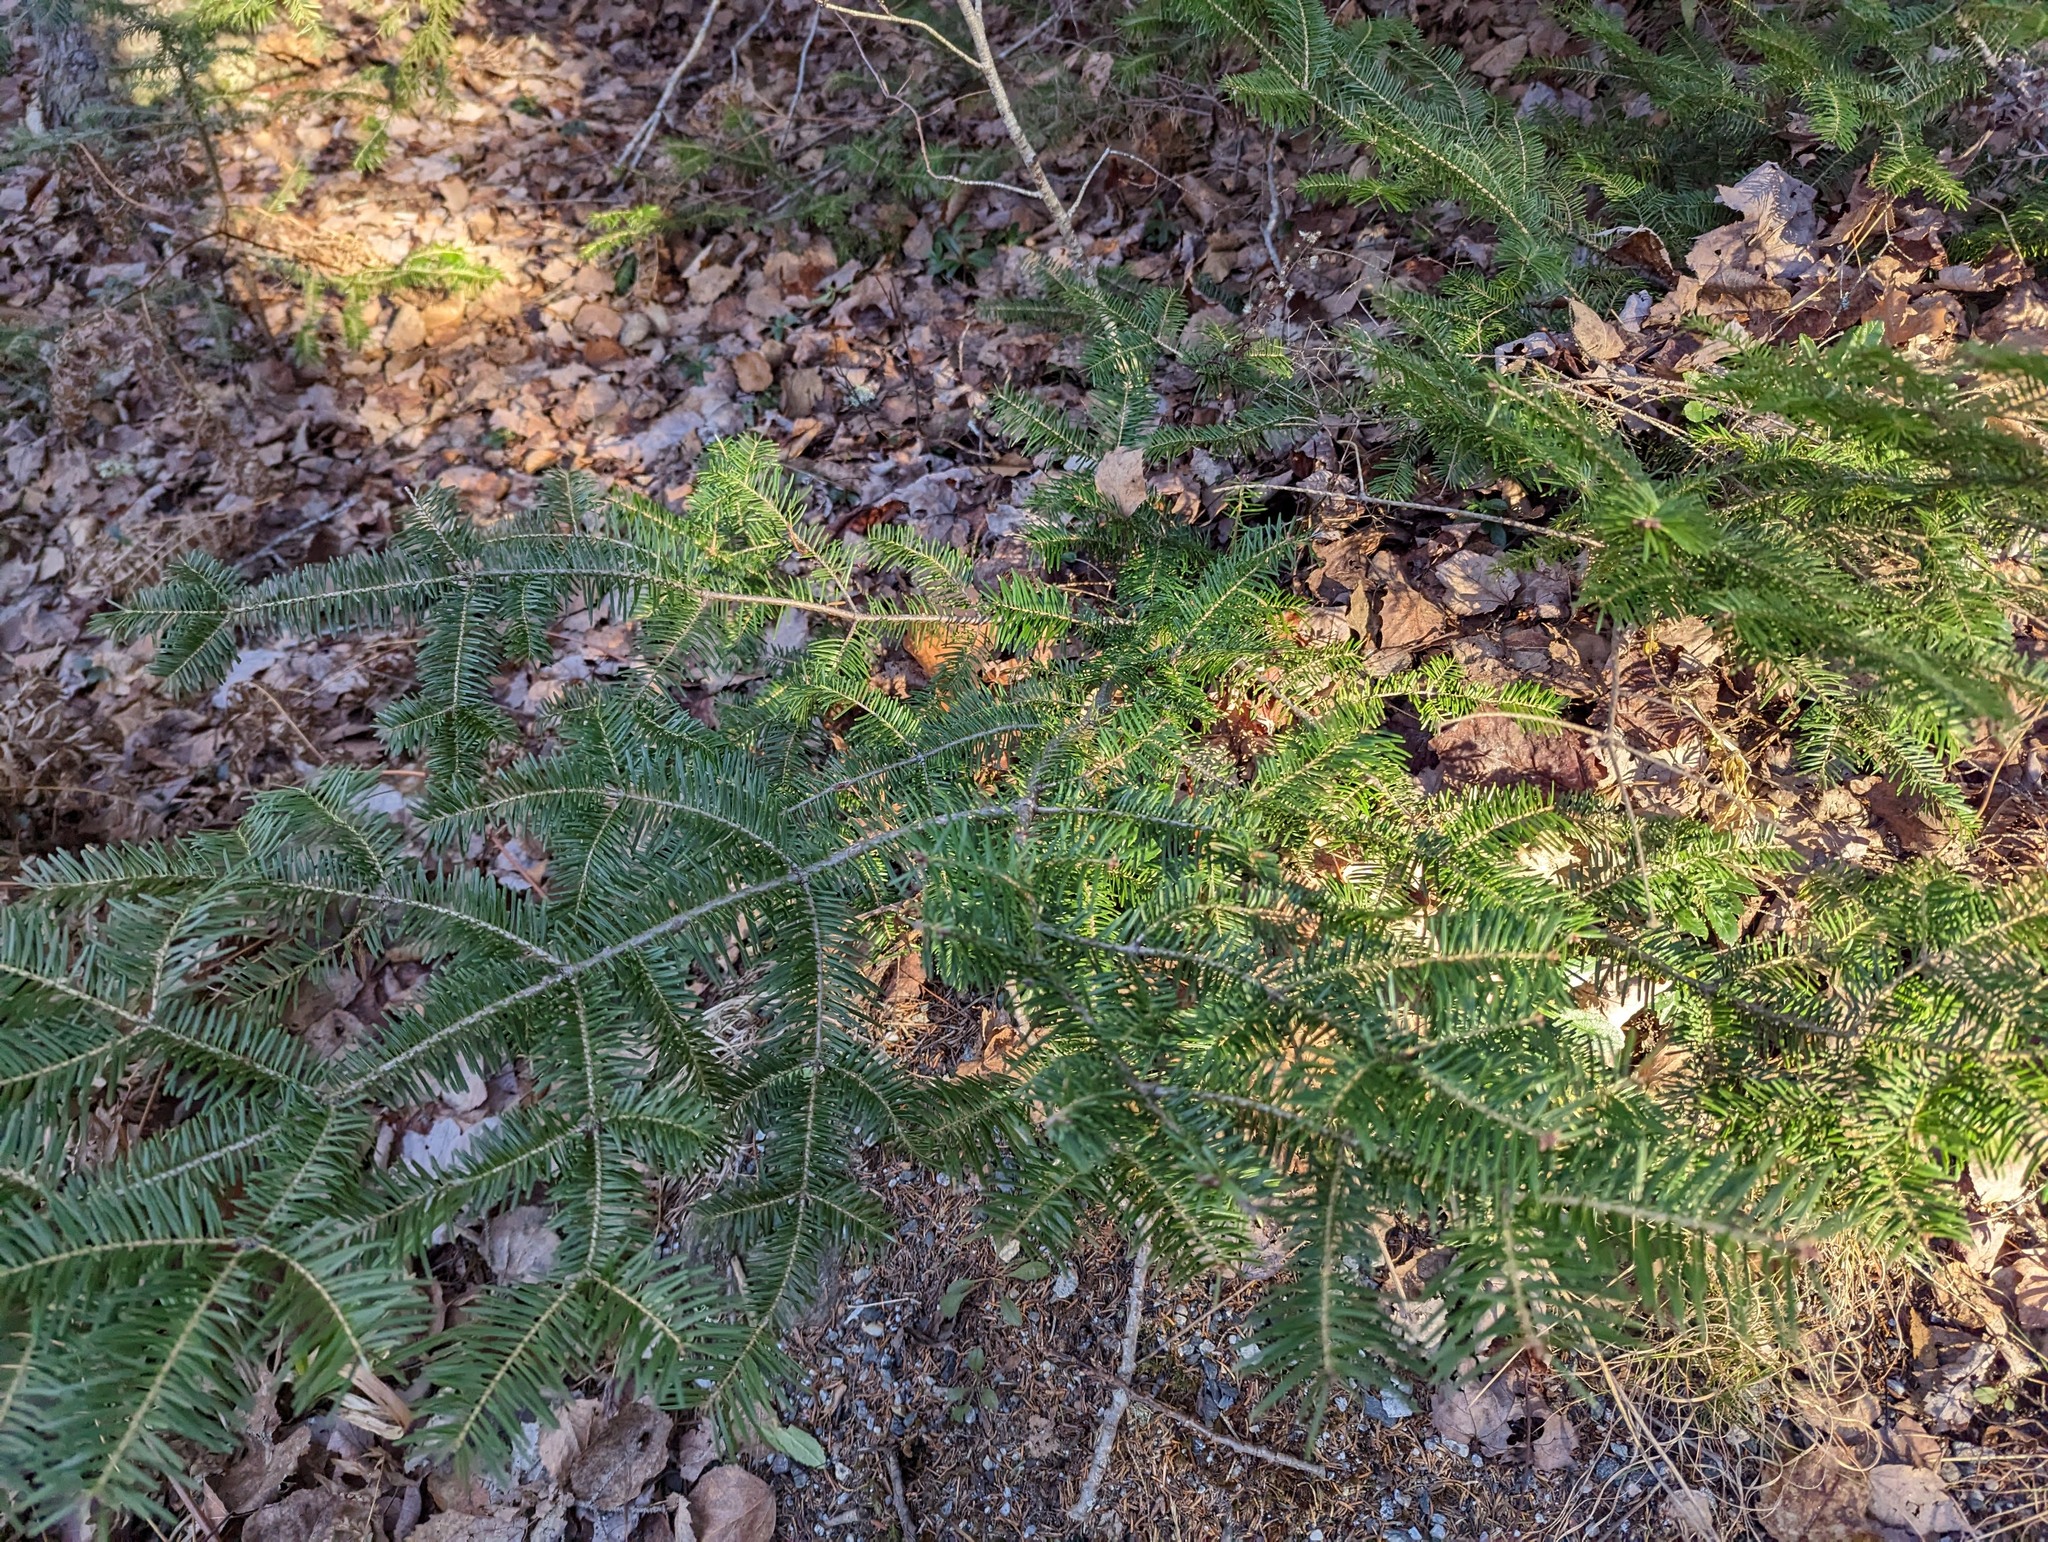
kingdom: Plantae
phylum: Tracheophyta
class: Pinopsida
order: Pinales
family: Pinaceae
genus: Abies
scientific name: Abies balsamea
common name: Balsam fir
